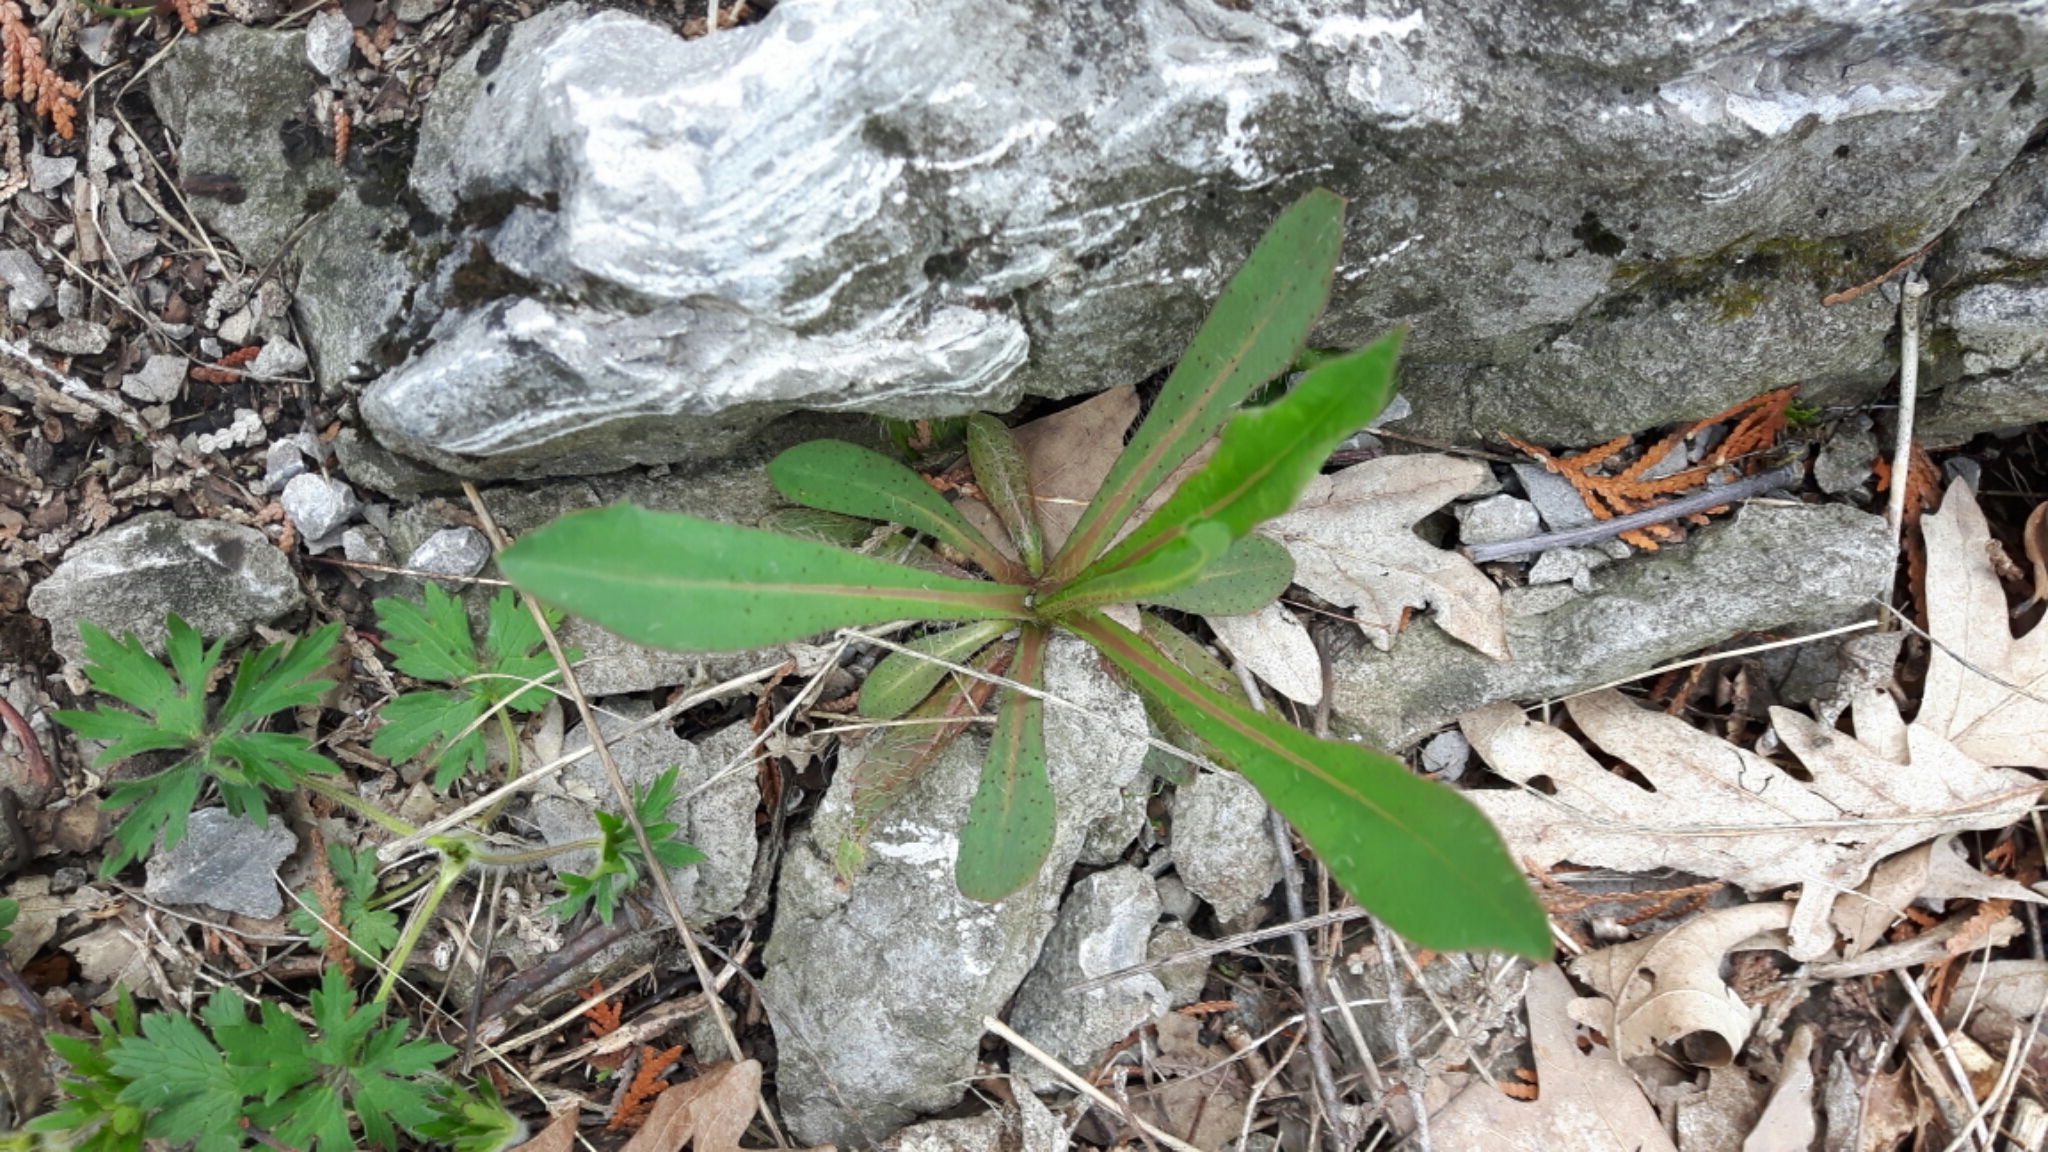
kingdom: Plantae
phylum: Tracheophyta
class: Magnoliopsida
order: Asterales
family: Asteraceae
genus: Pilosella
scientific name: Pilosella piloselloides
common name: Glaucous king-devil
